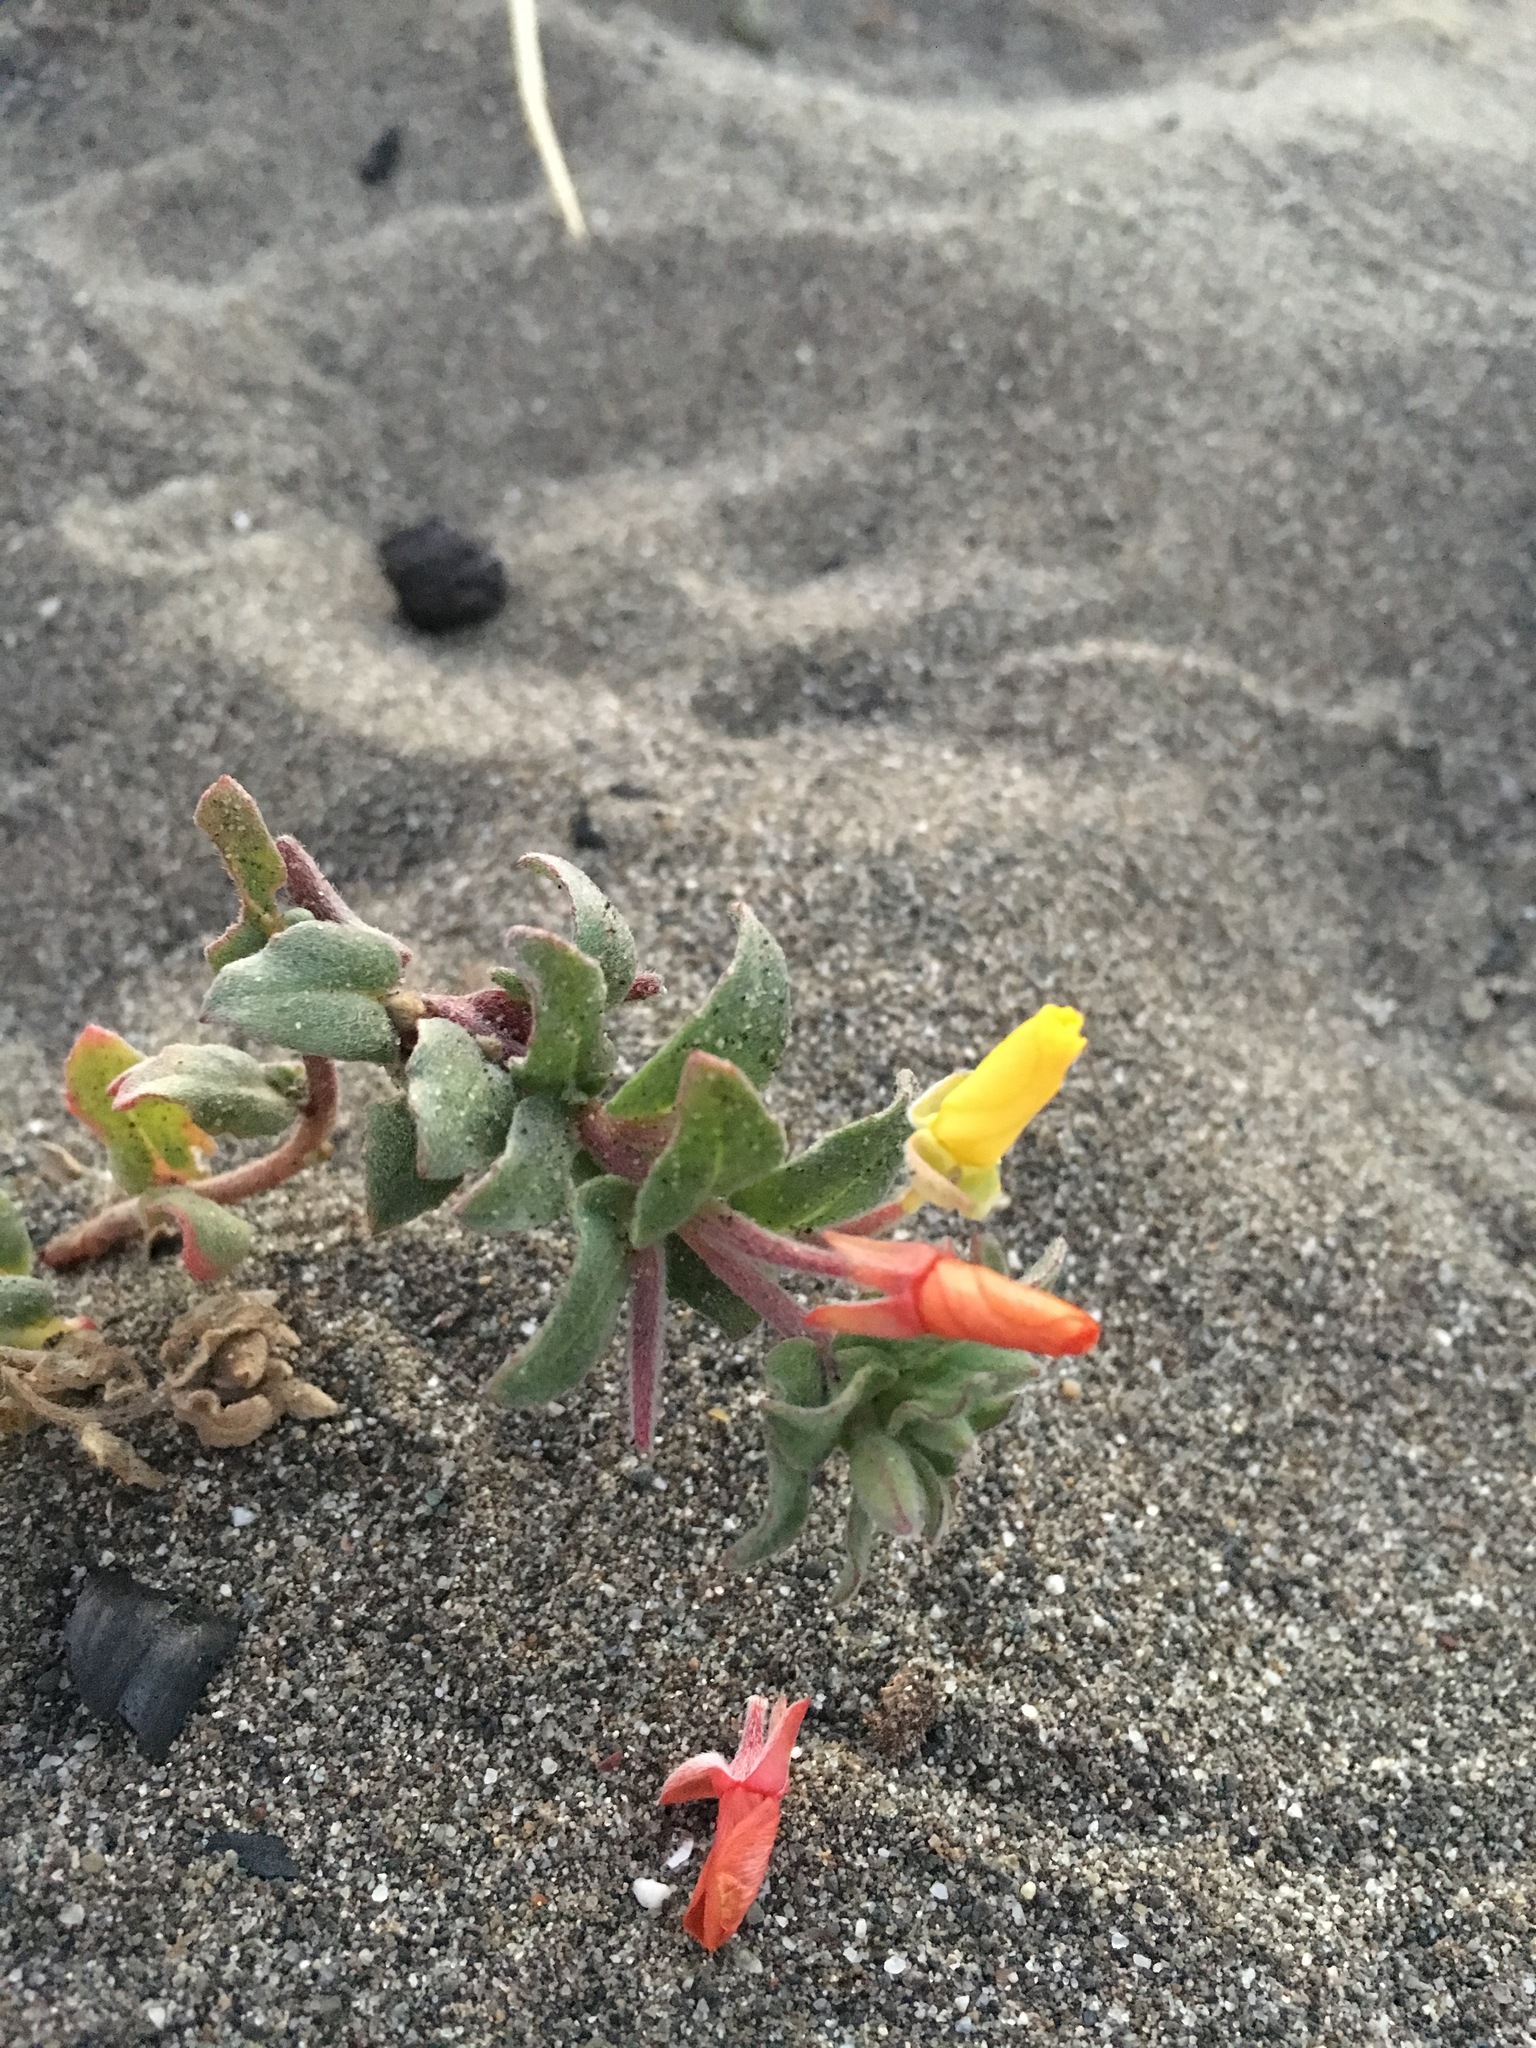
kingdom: Plantae
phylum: Tracheophyta
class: Magnoliopsida
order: Myrtales
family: Onagraceae
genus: Camissoniopsis
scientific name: Camissoniopsis cheiranthifolia
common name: Beach suncup
